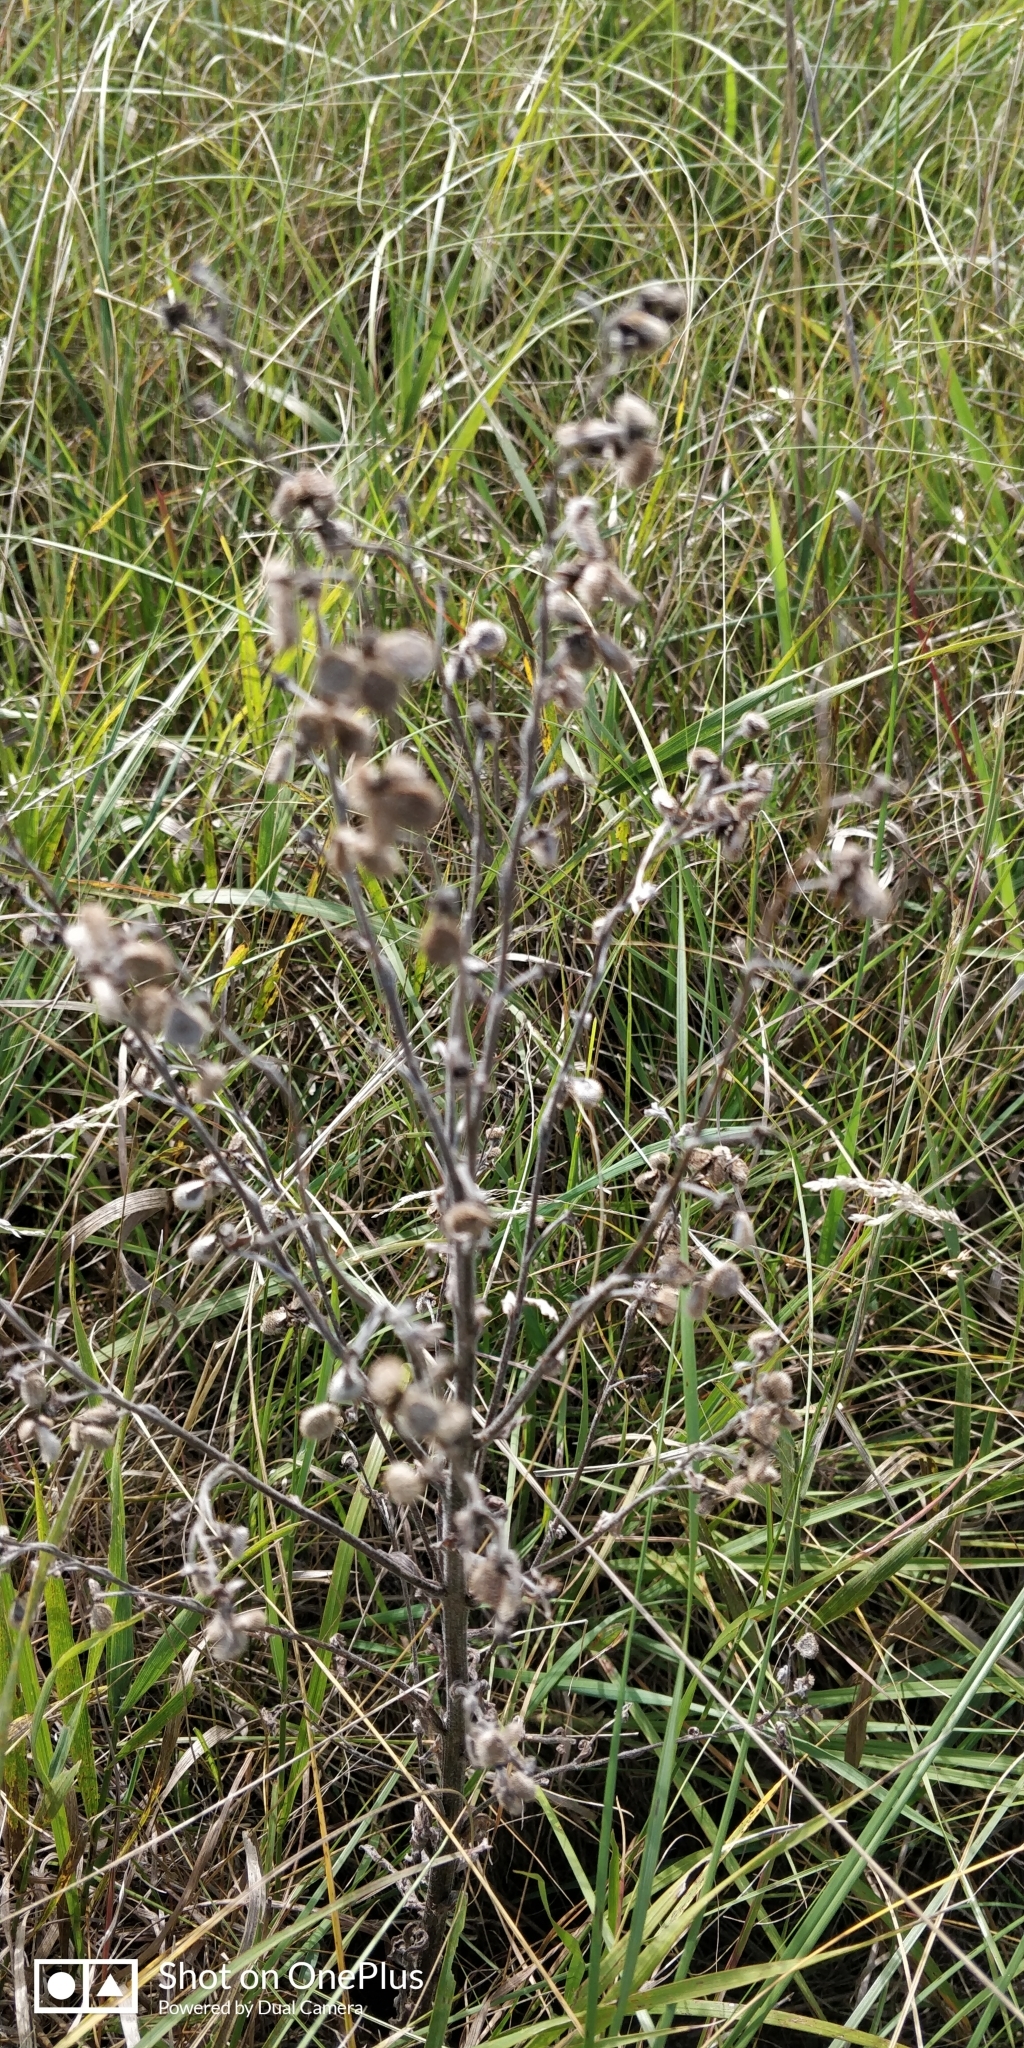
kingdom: Plantae
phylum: Tracheophyta
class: Magnoliopsida
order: Boraginales
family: Boraginaceae
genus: Cynoglossum
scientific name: Cynoglossum officinale
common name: Hound's-tongue
